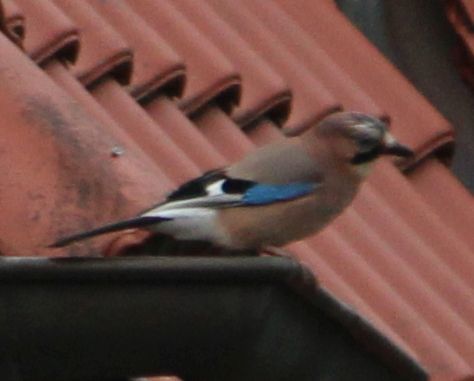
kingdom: Animalia
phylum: Chordata
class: Aves
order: Passeriformes
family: Corvidae
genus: Garrulus
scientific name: Garrulus glandarius
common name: Eurasian jay
